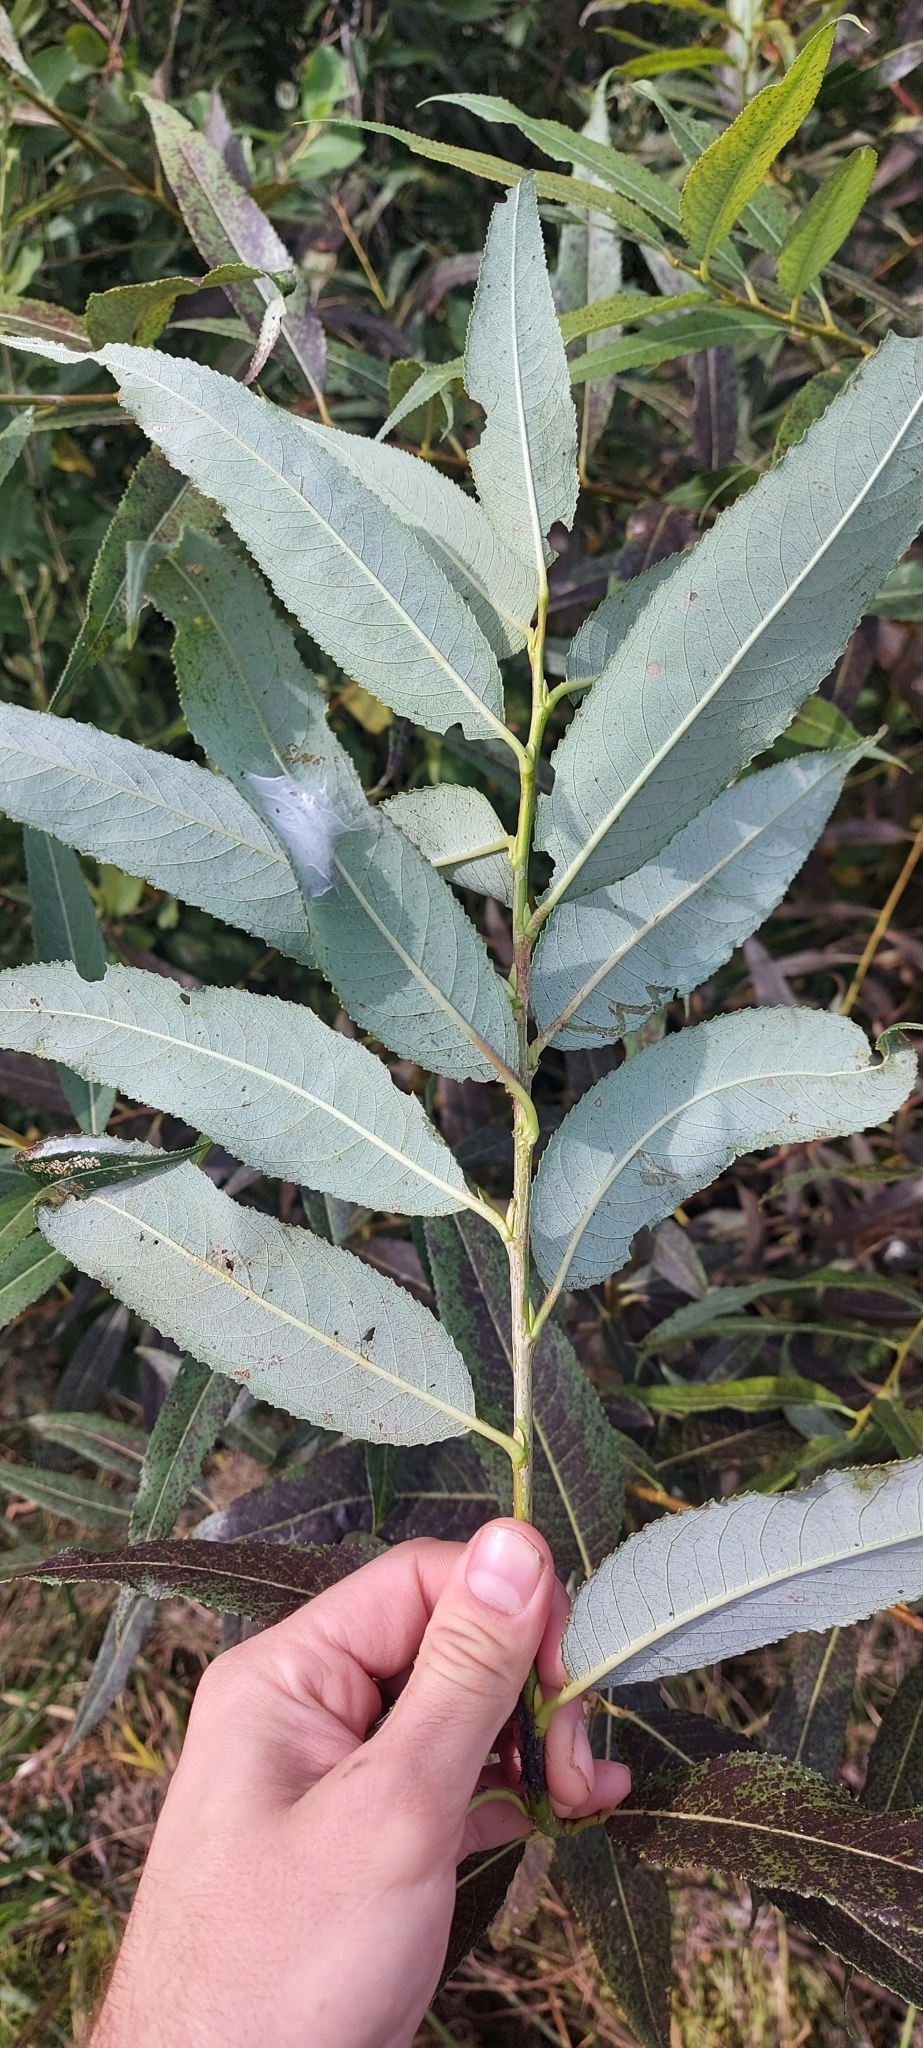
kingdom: Plantae
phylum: Tracheophyta
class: Magnoliopsida
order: Malpighiales
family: Salicaceae
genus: Salix
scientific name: Salix fragilis
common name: Crack willow
